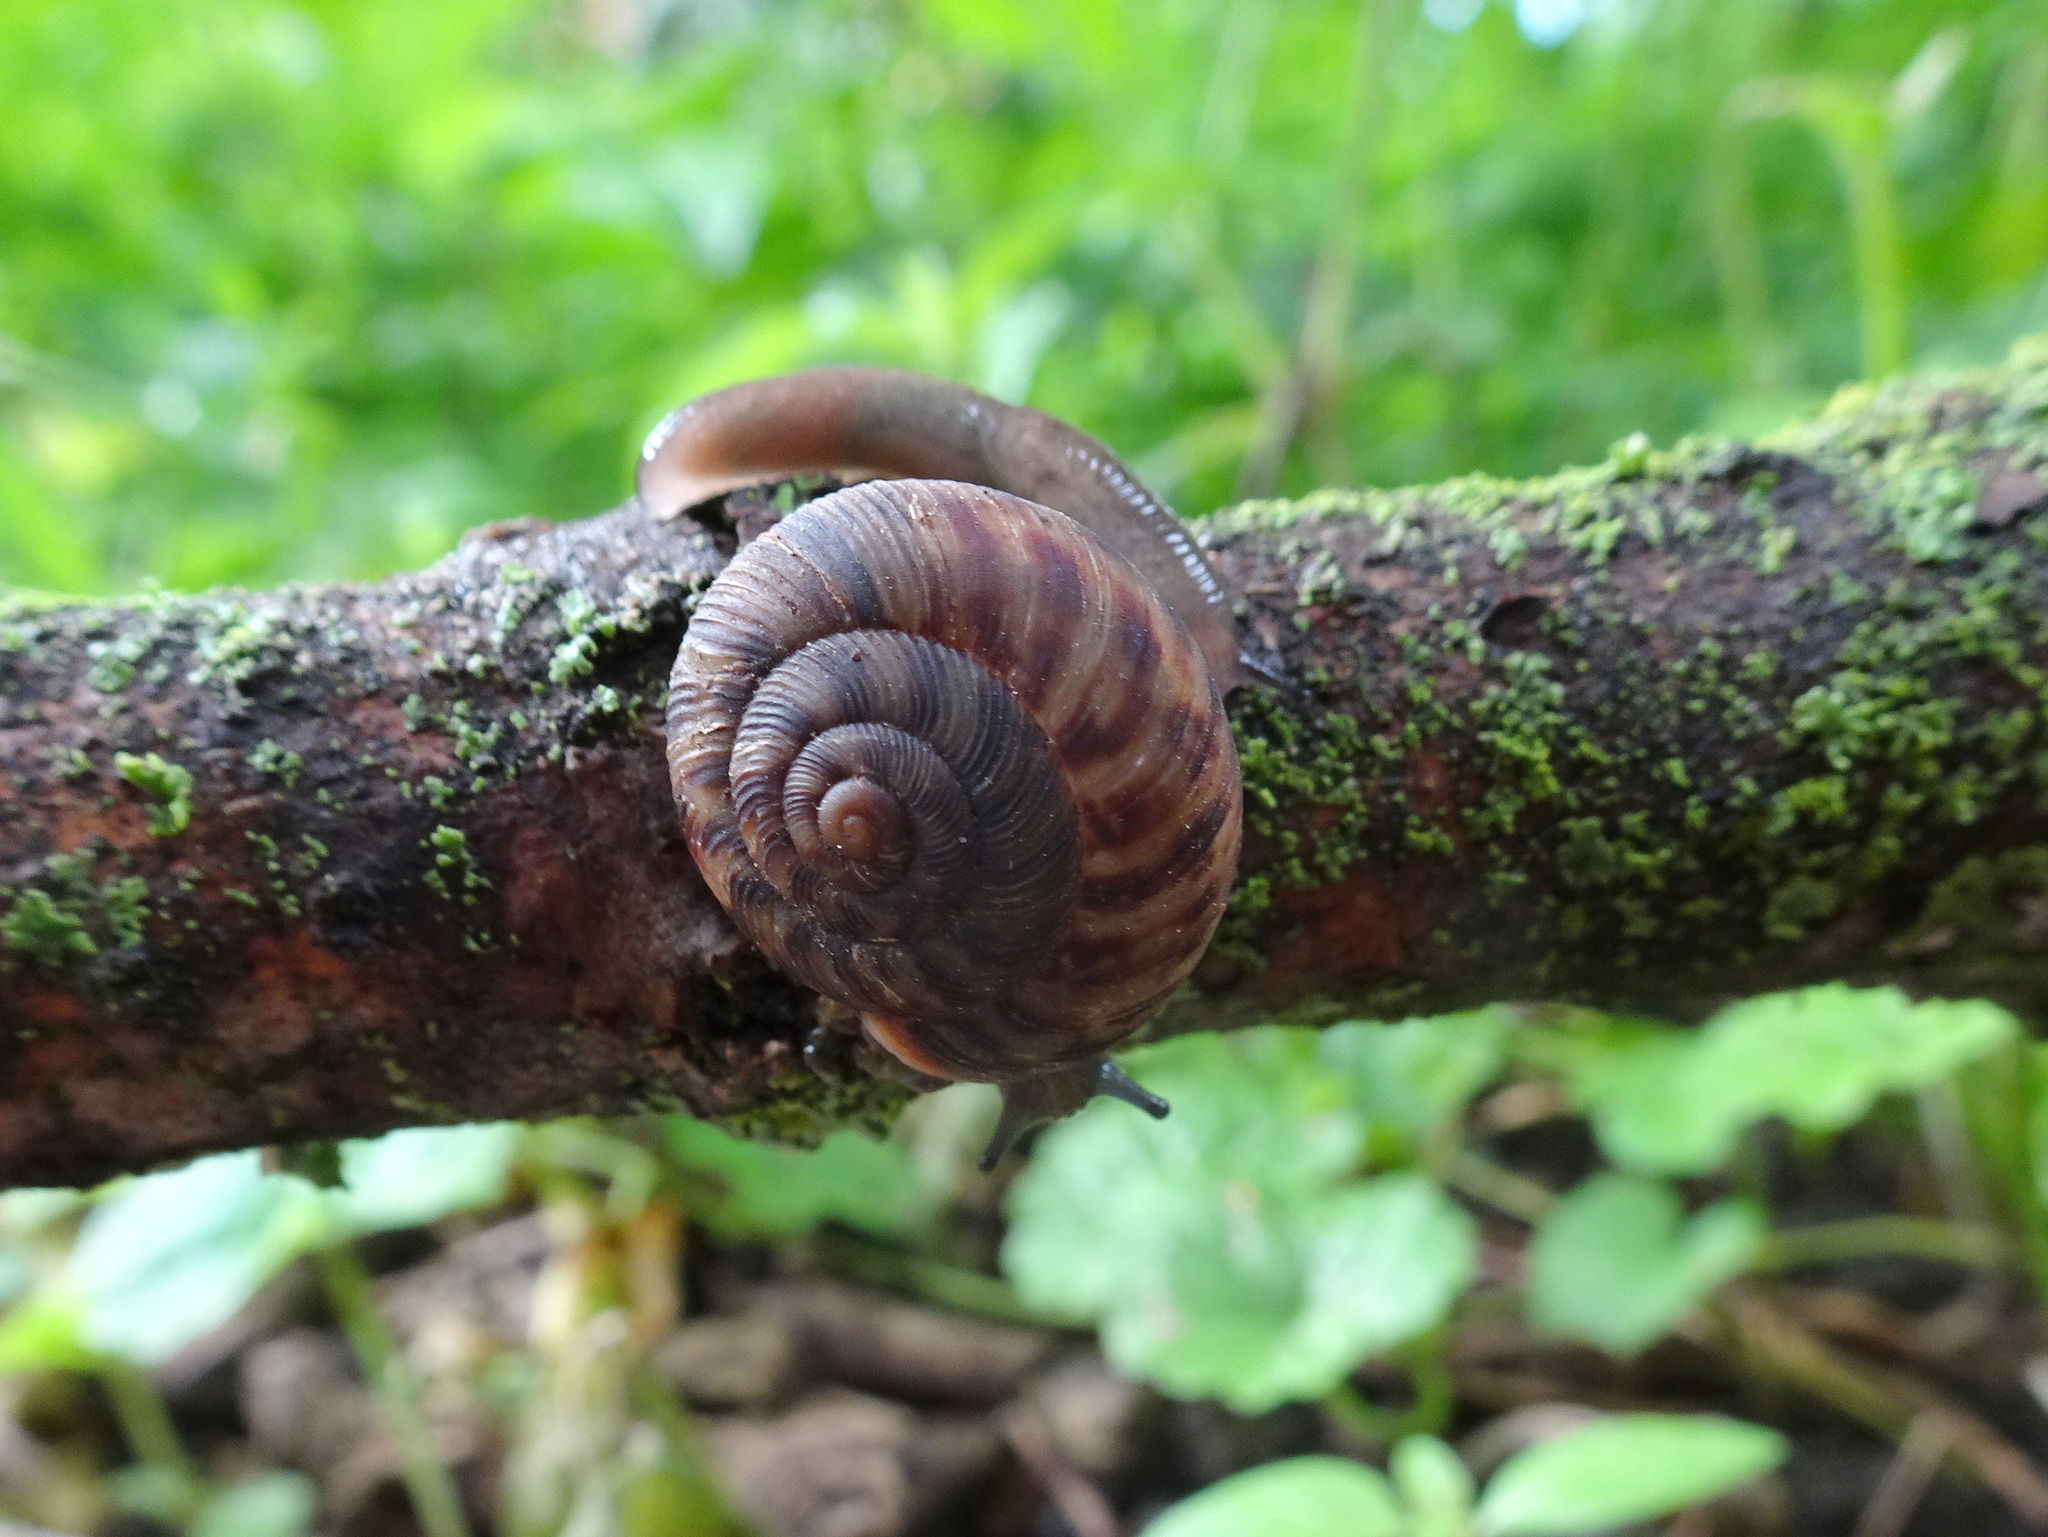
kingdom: Animalia
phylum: Mollusca
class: Gastropoda
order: Stylommatophora
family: Discidae
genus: Anguispira
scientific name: Anguispira alternata
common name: Flamed tigersnail
